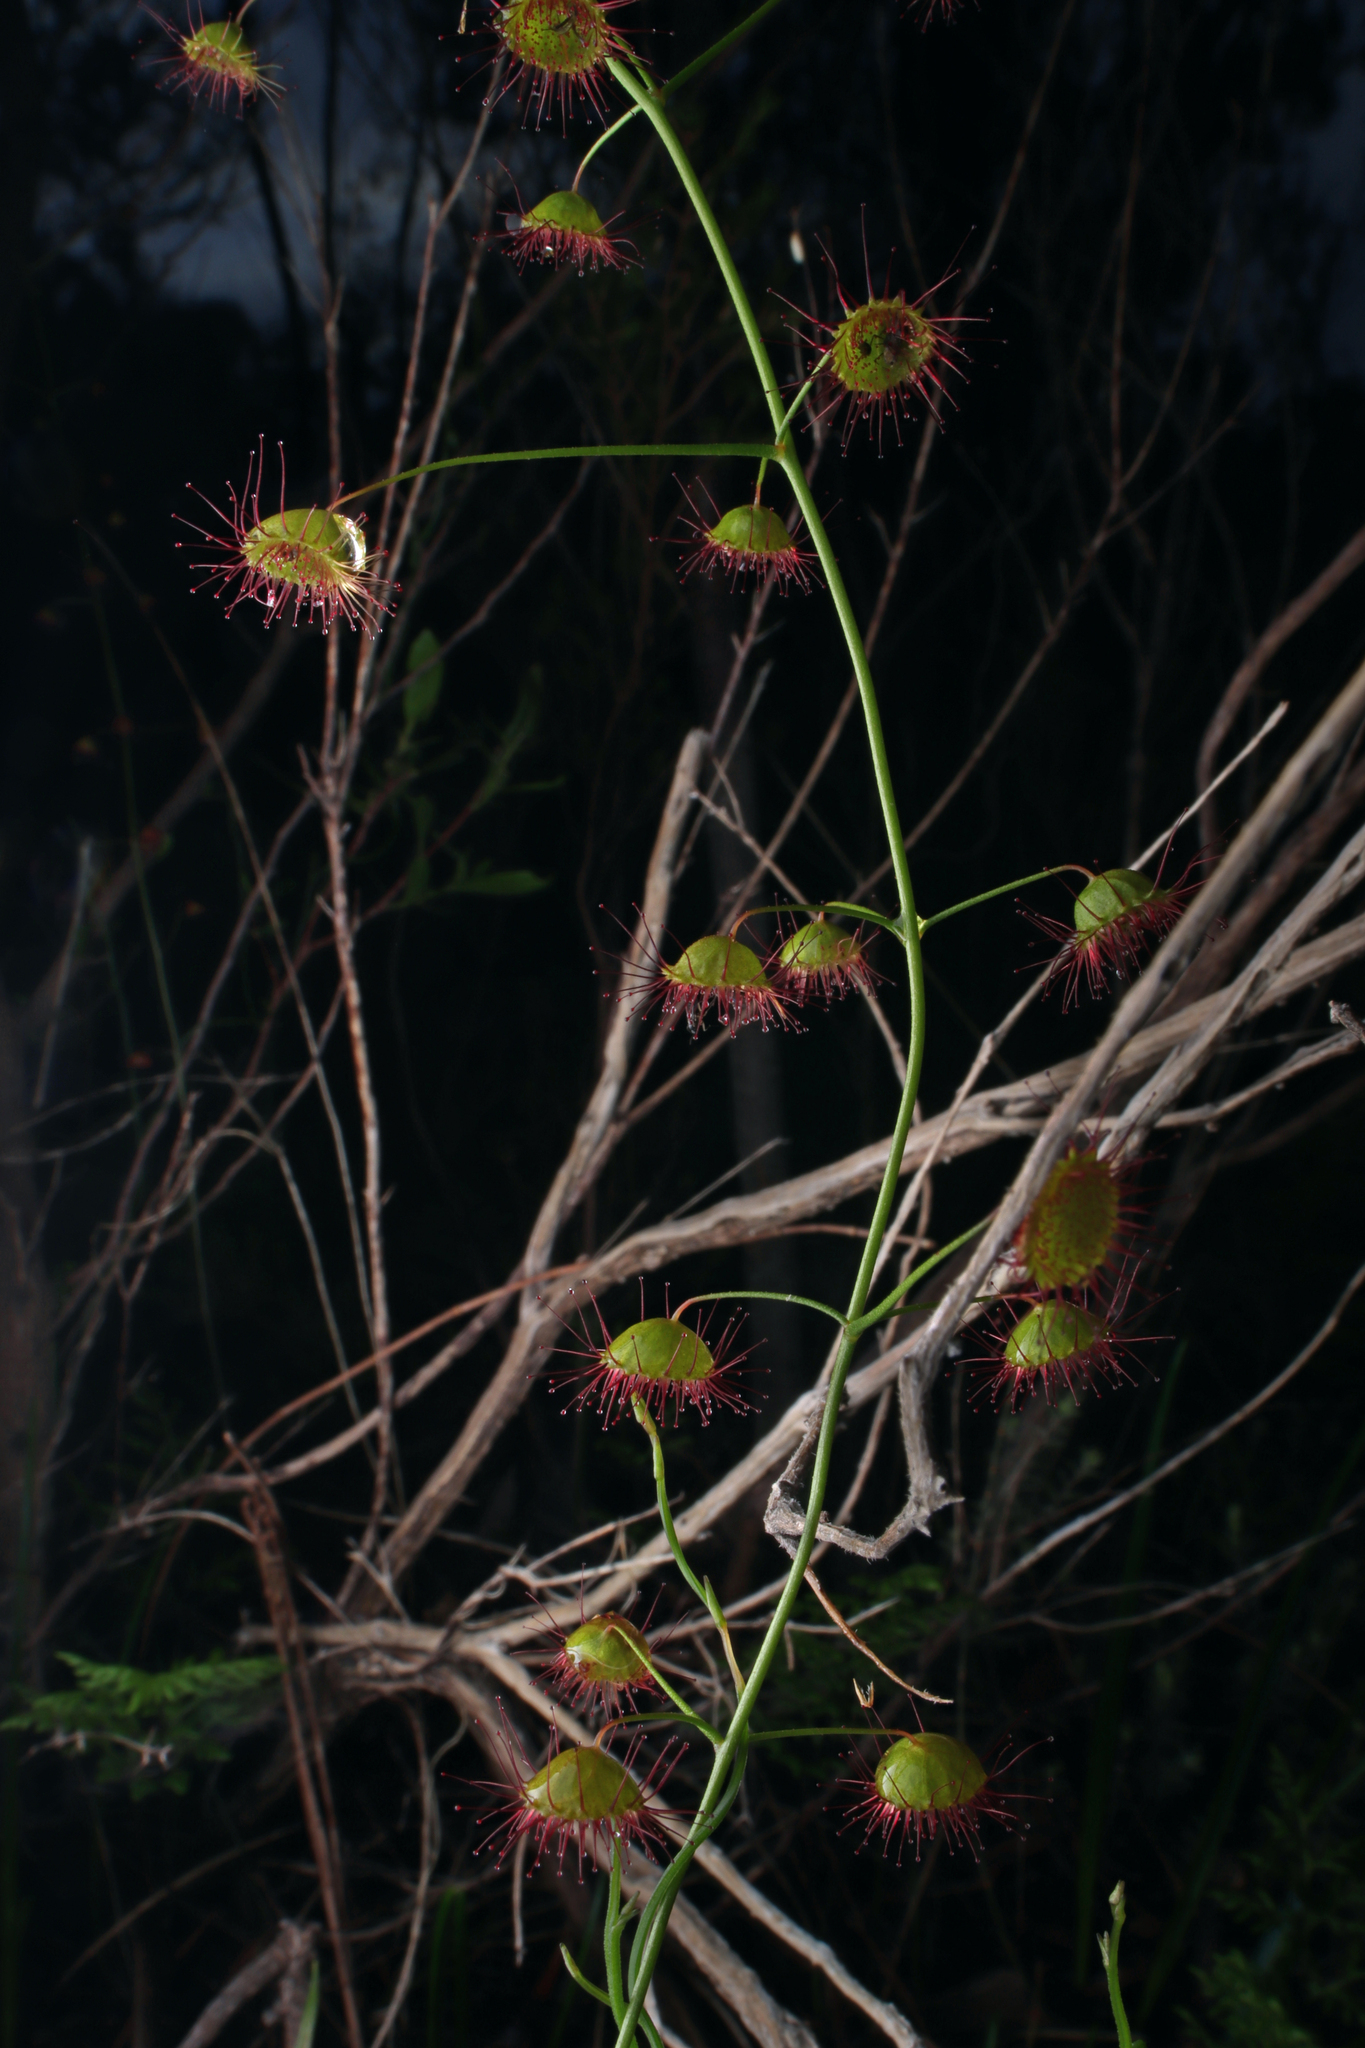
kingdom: Plantae
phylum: Tracheophyta
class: Magnoliopsida
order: Caryophyllales
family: Droseraceae
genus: Drosera
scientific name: Drosera planchonii
